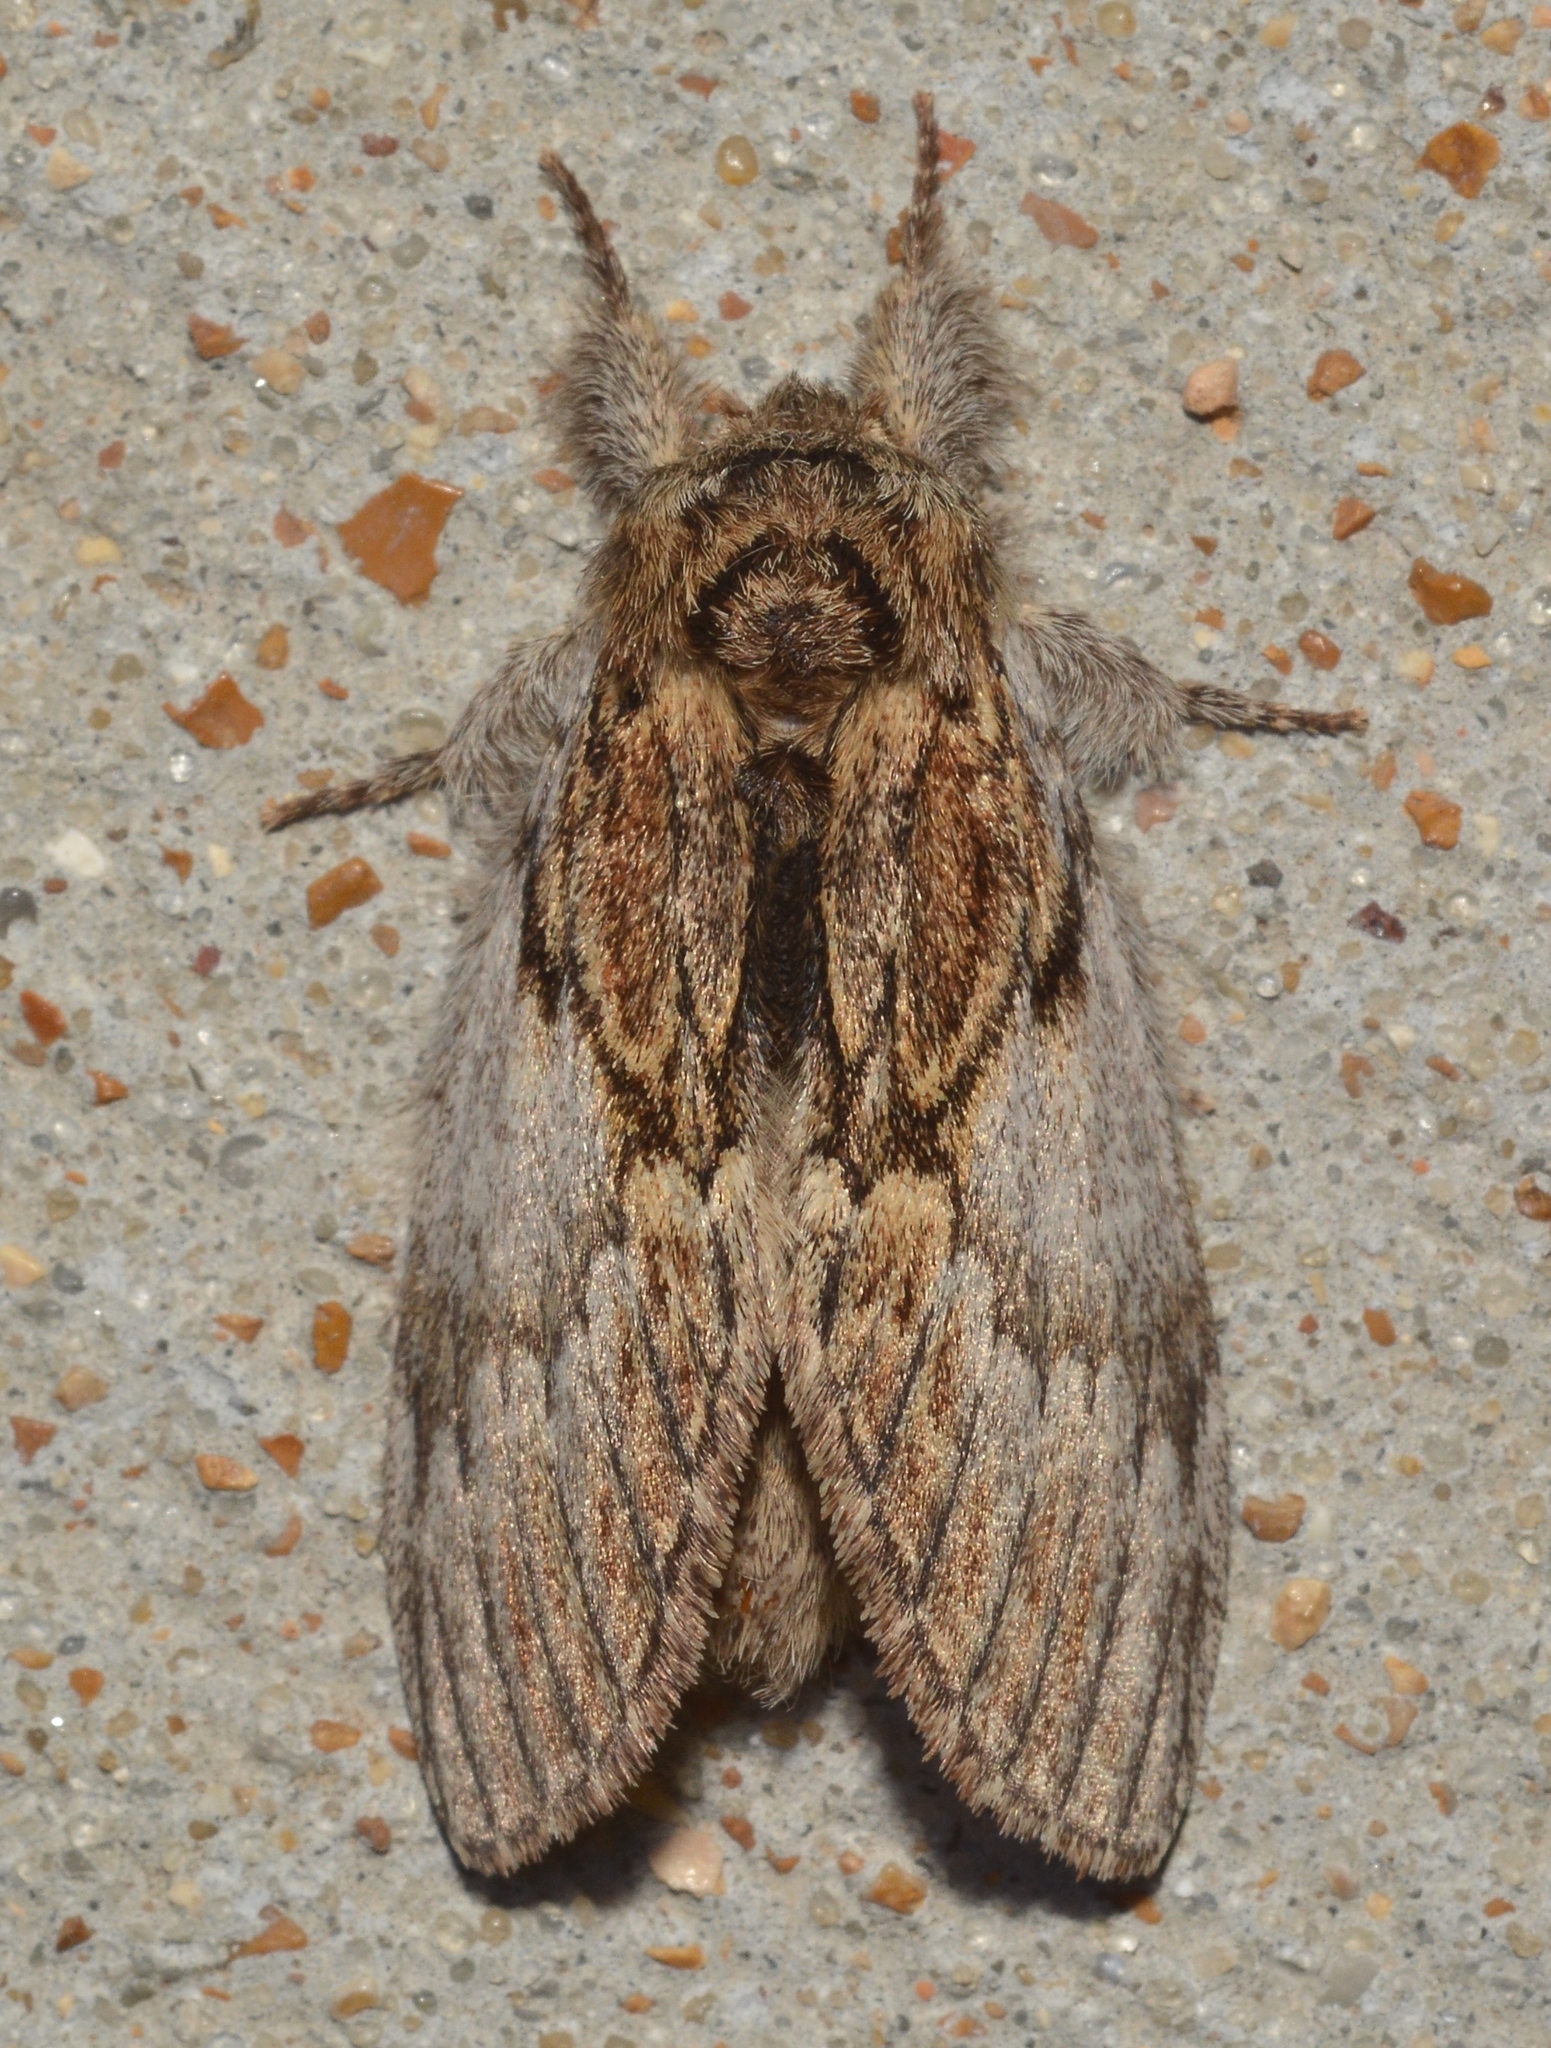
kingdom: Animalia
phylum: Arthropoda
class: Insecta
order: Lepidoptera
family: Notodontidae
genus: Peridea
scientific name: Peridea basitriens
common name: Oval-based prominent
